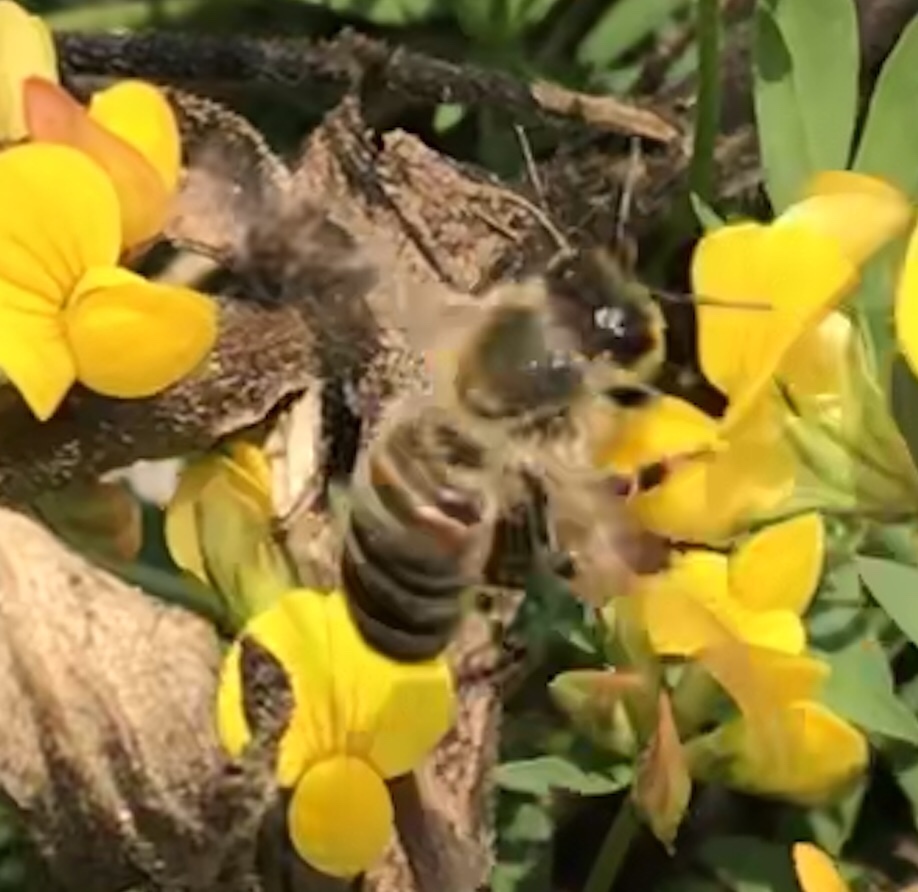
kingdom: Animalia
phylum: Arthropoda
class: Insecta
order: Hymenoptera
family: Apidae
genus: Apis
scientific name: Apis mellifera
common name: Honey bee
